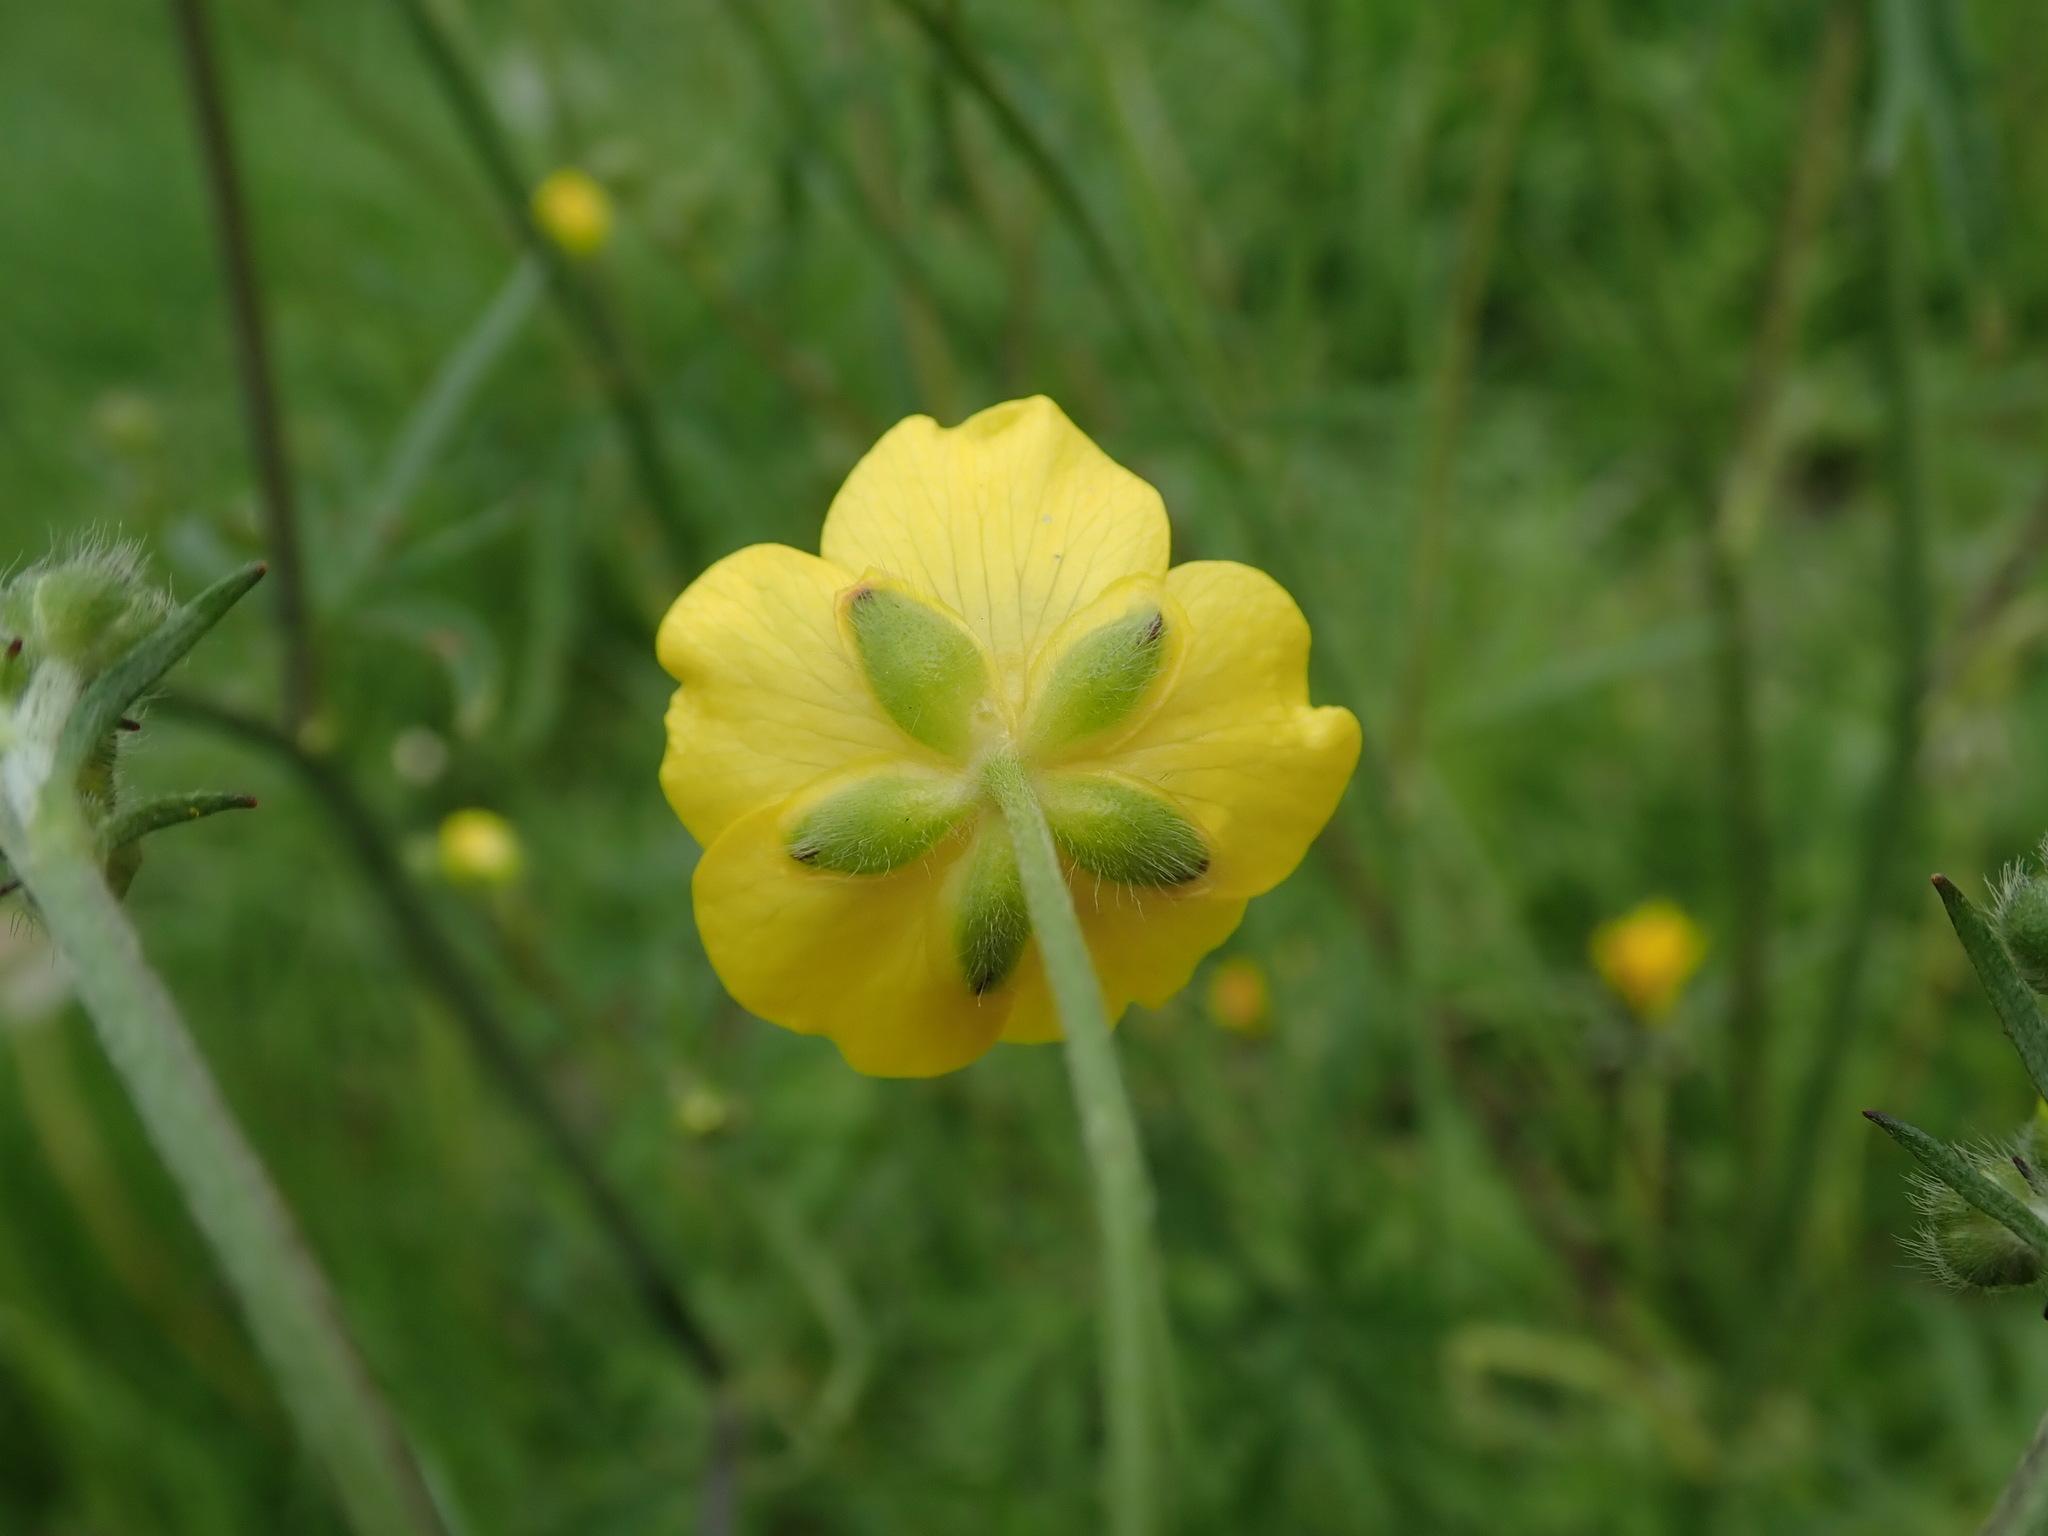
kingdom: Plantae
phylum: Tracheophyta
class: Magnoliopsida
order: Ranunculales
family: Ranunculaceae
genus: Ranunculus
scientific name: Ranunculus acris
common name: Meadow buttercup
